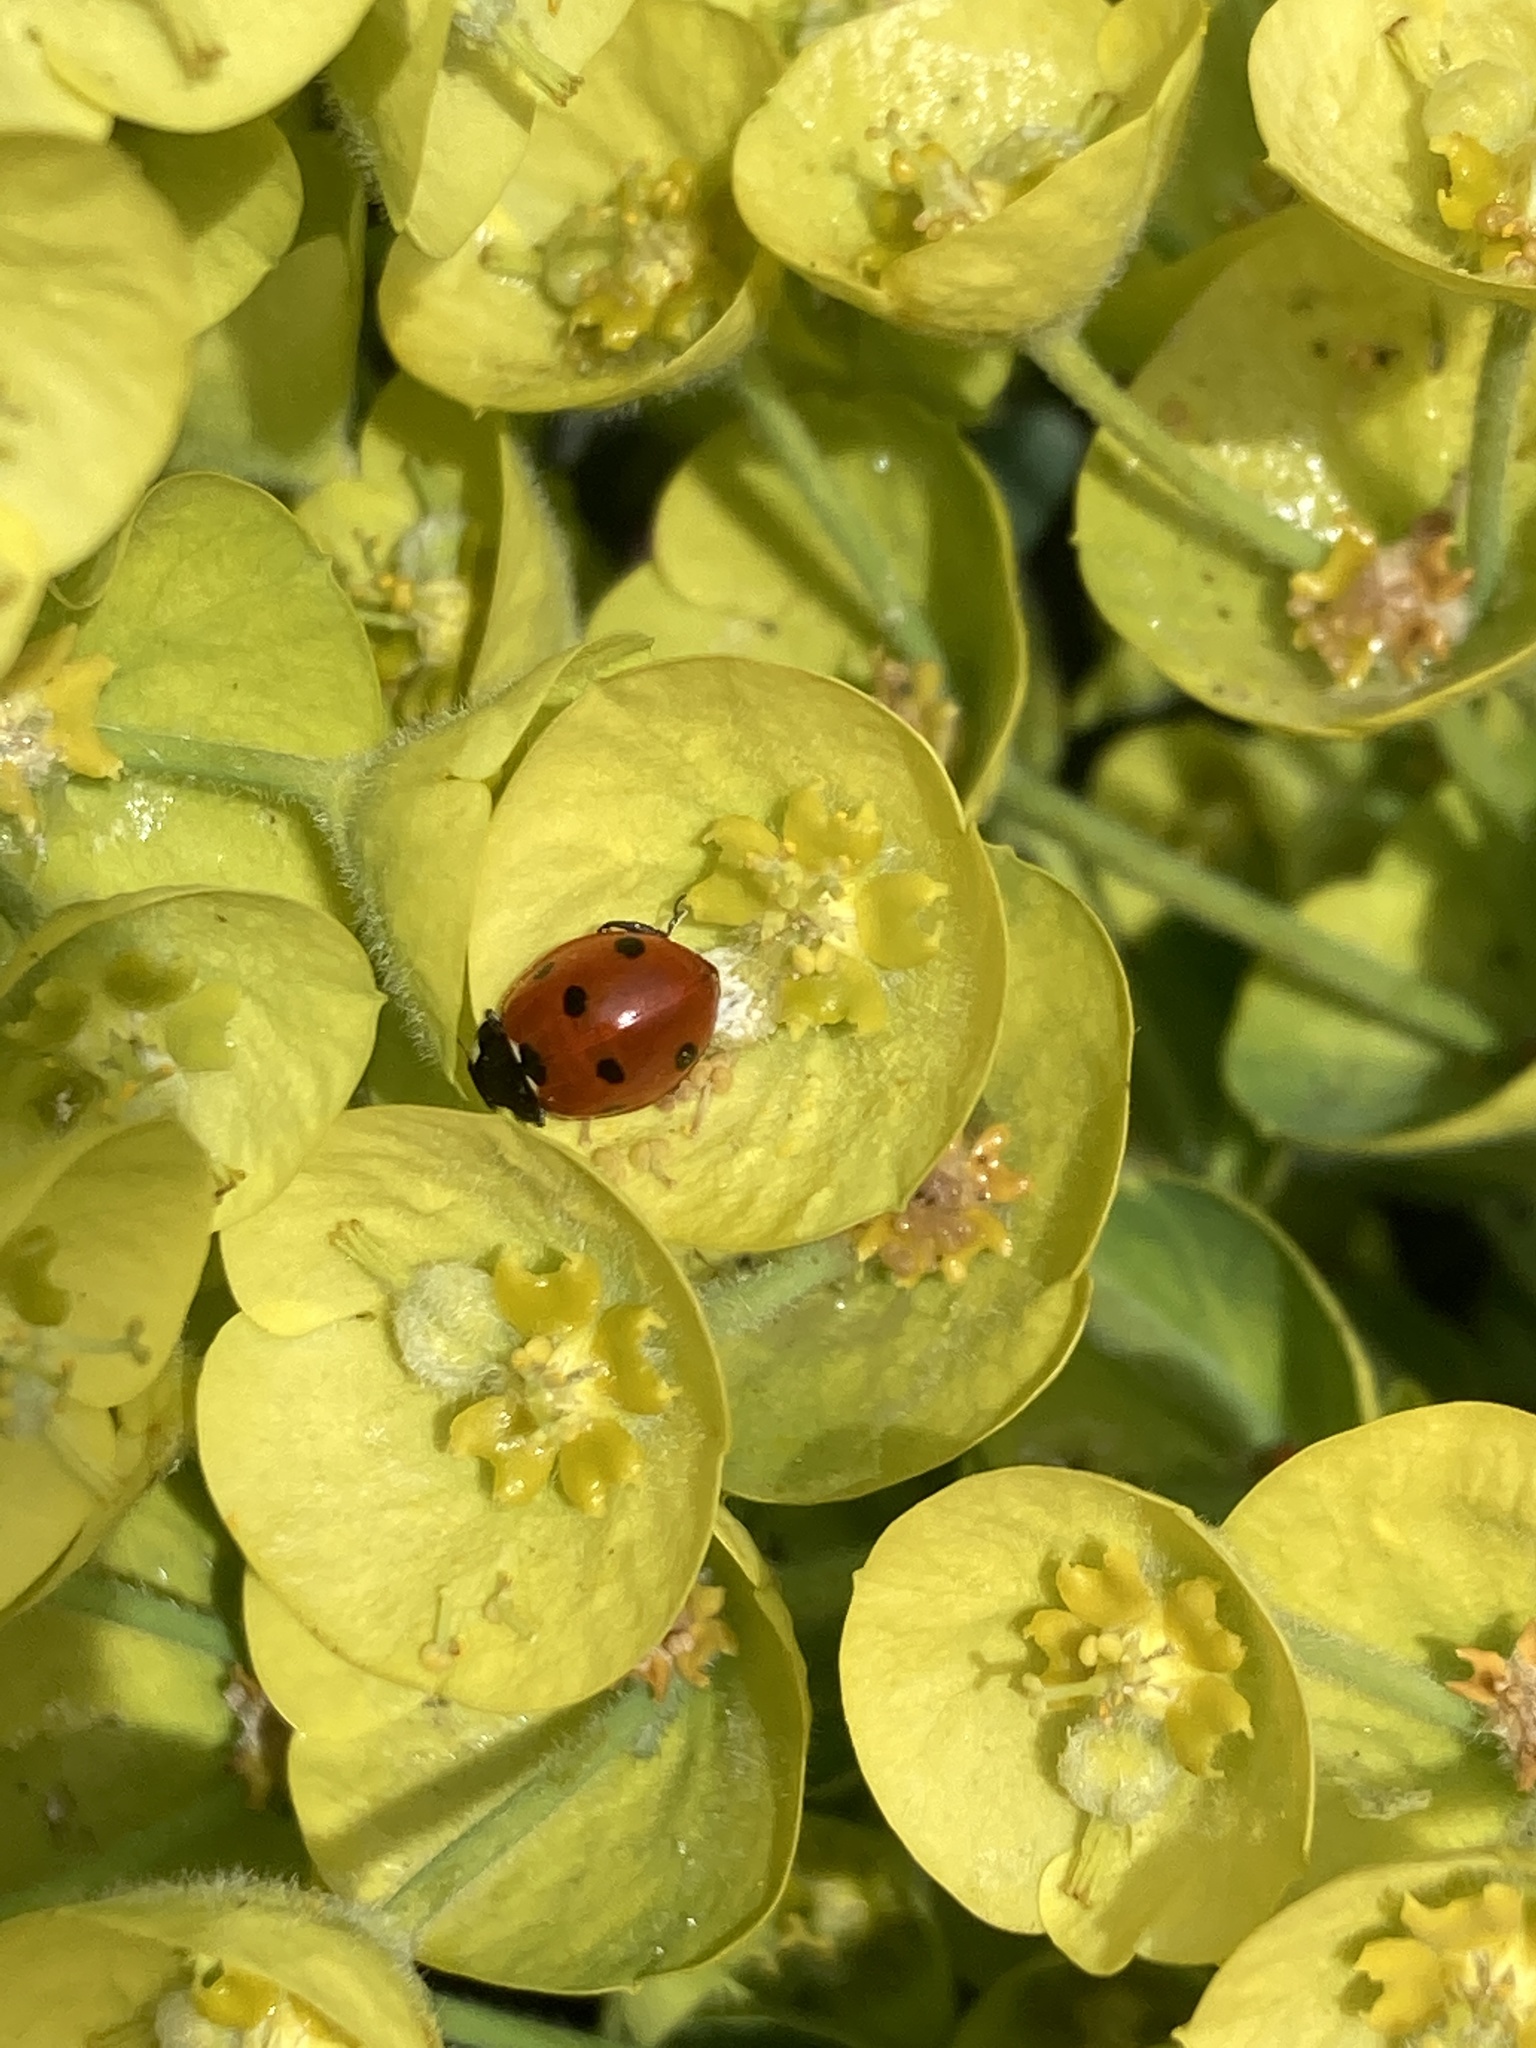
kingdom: Animalia
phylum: Arthropoda
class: Insecta
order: Coleoptera
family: Coccinellidae
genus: Coccinella
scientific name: Coccinella septempunctata
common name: Sevenspotted lady beetle
